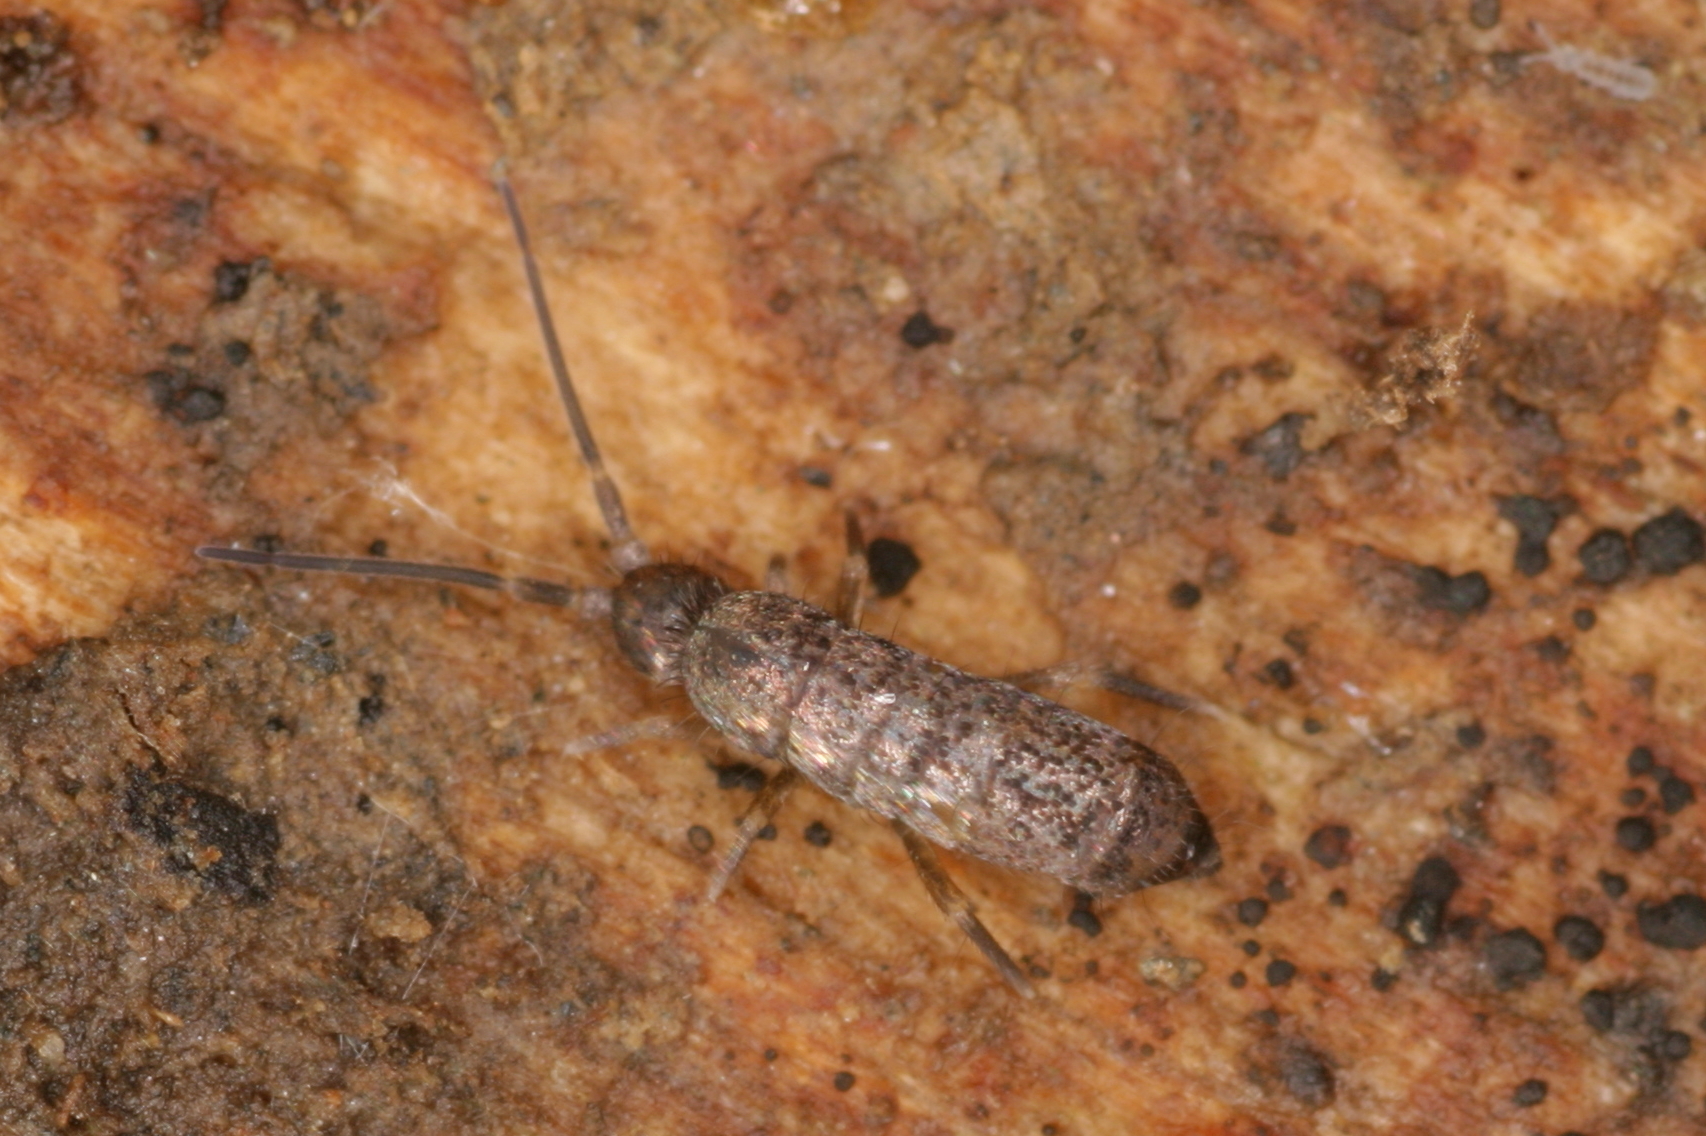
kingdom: Animalia
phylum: Arthropoda
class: Collembola
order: Entomobryomorpha
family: Tomoceridae
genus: Tomocerus
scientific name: Tomocerus minor
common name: Springtail
